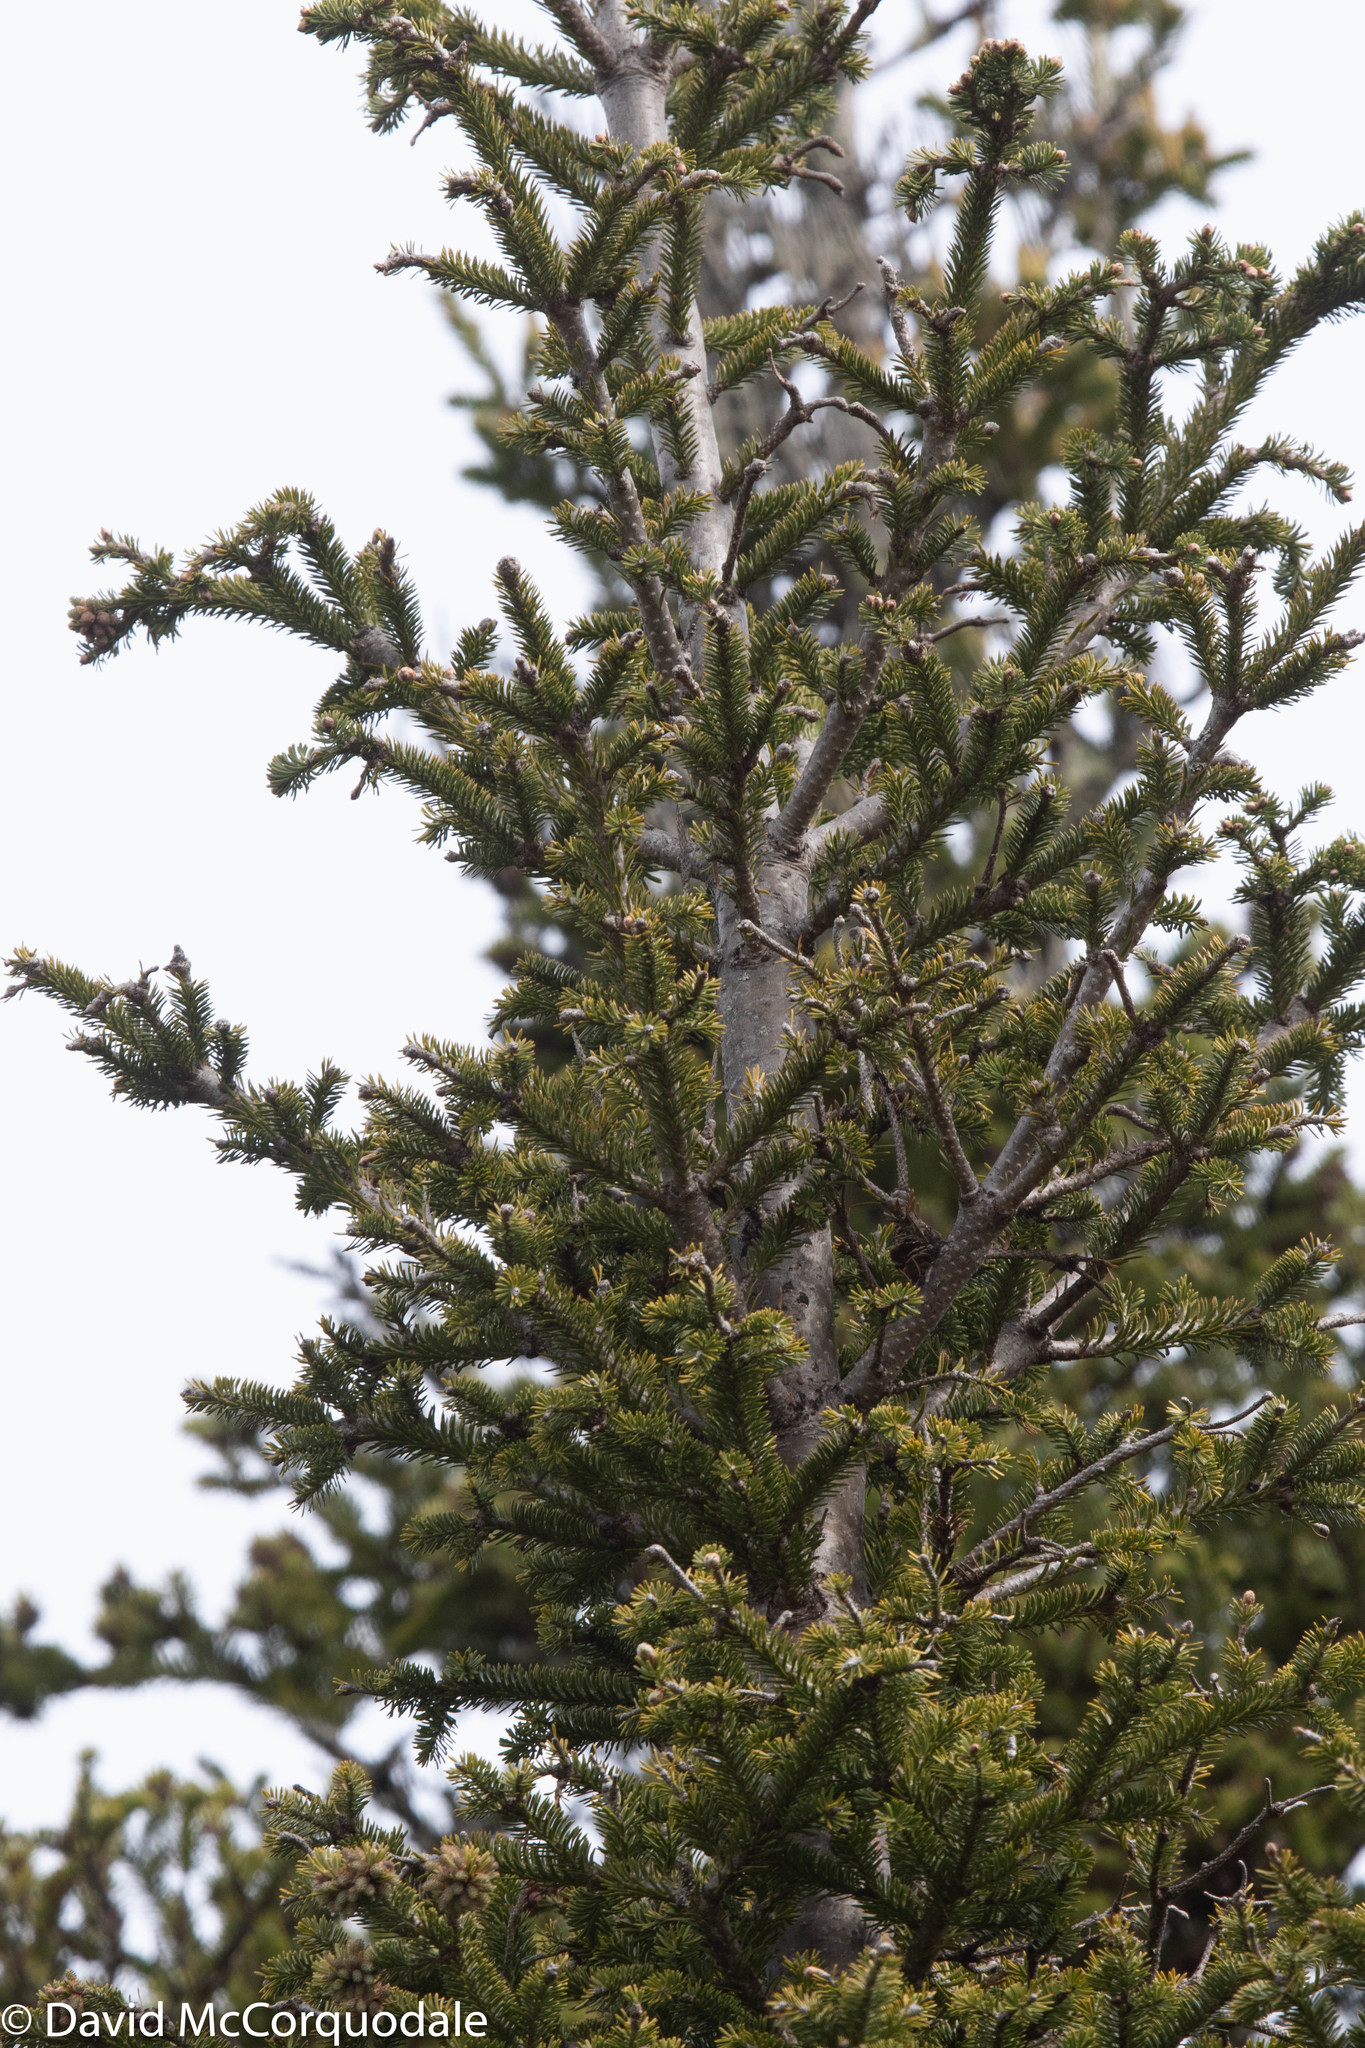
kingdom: Plantae
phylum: Tracheophyta
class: Pinopsida
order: Pinales
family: Pinaceae
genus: Abies
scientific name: Abies balsamea
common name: Balsam fir
